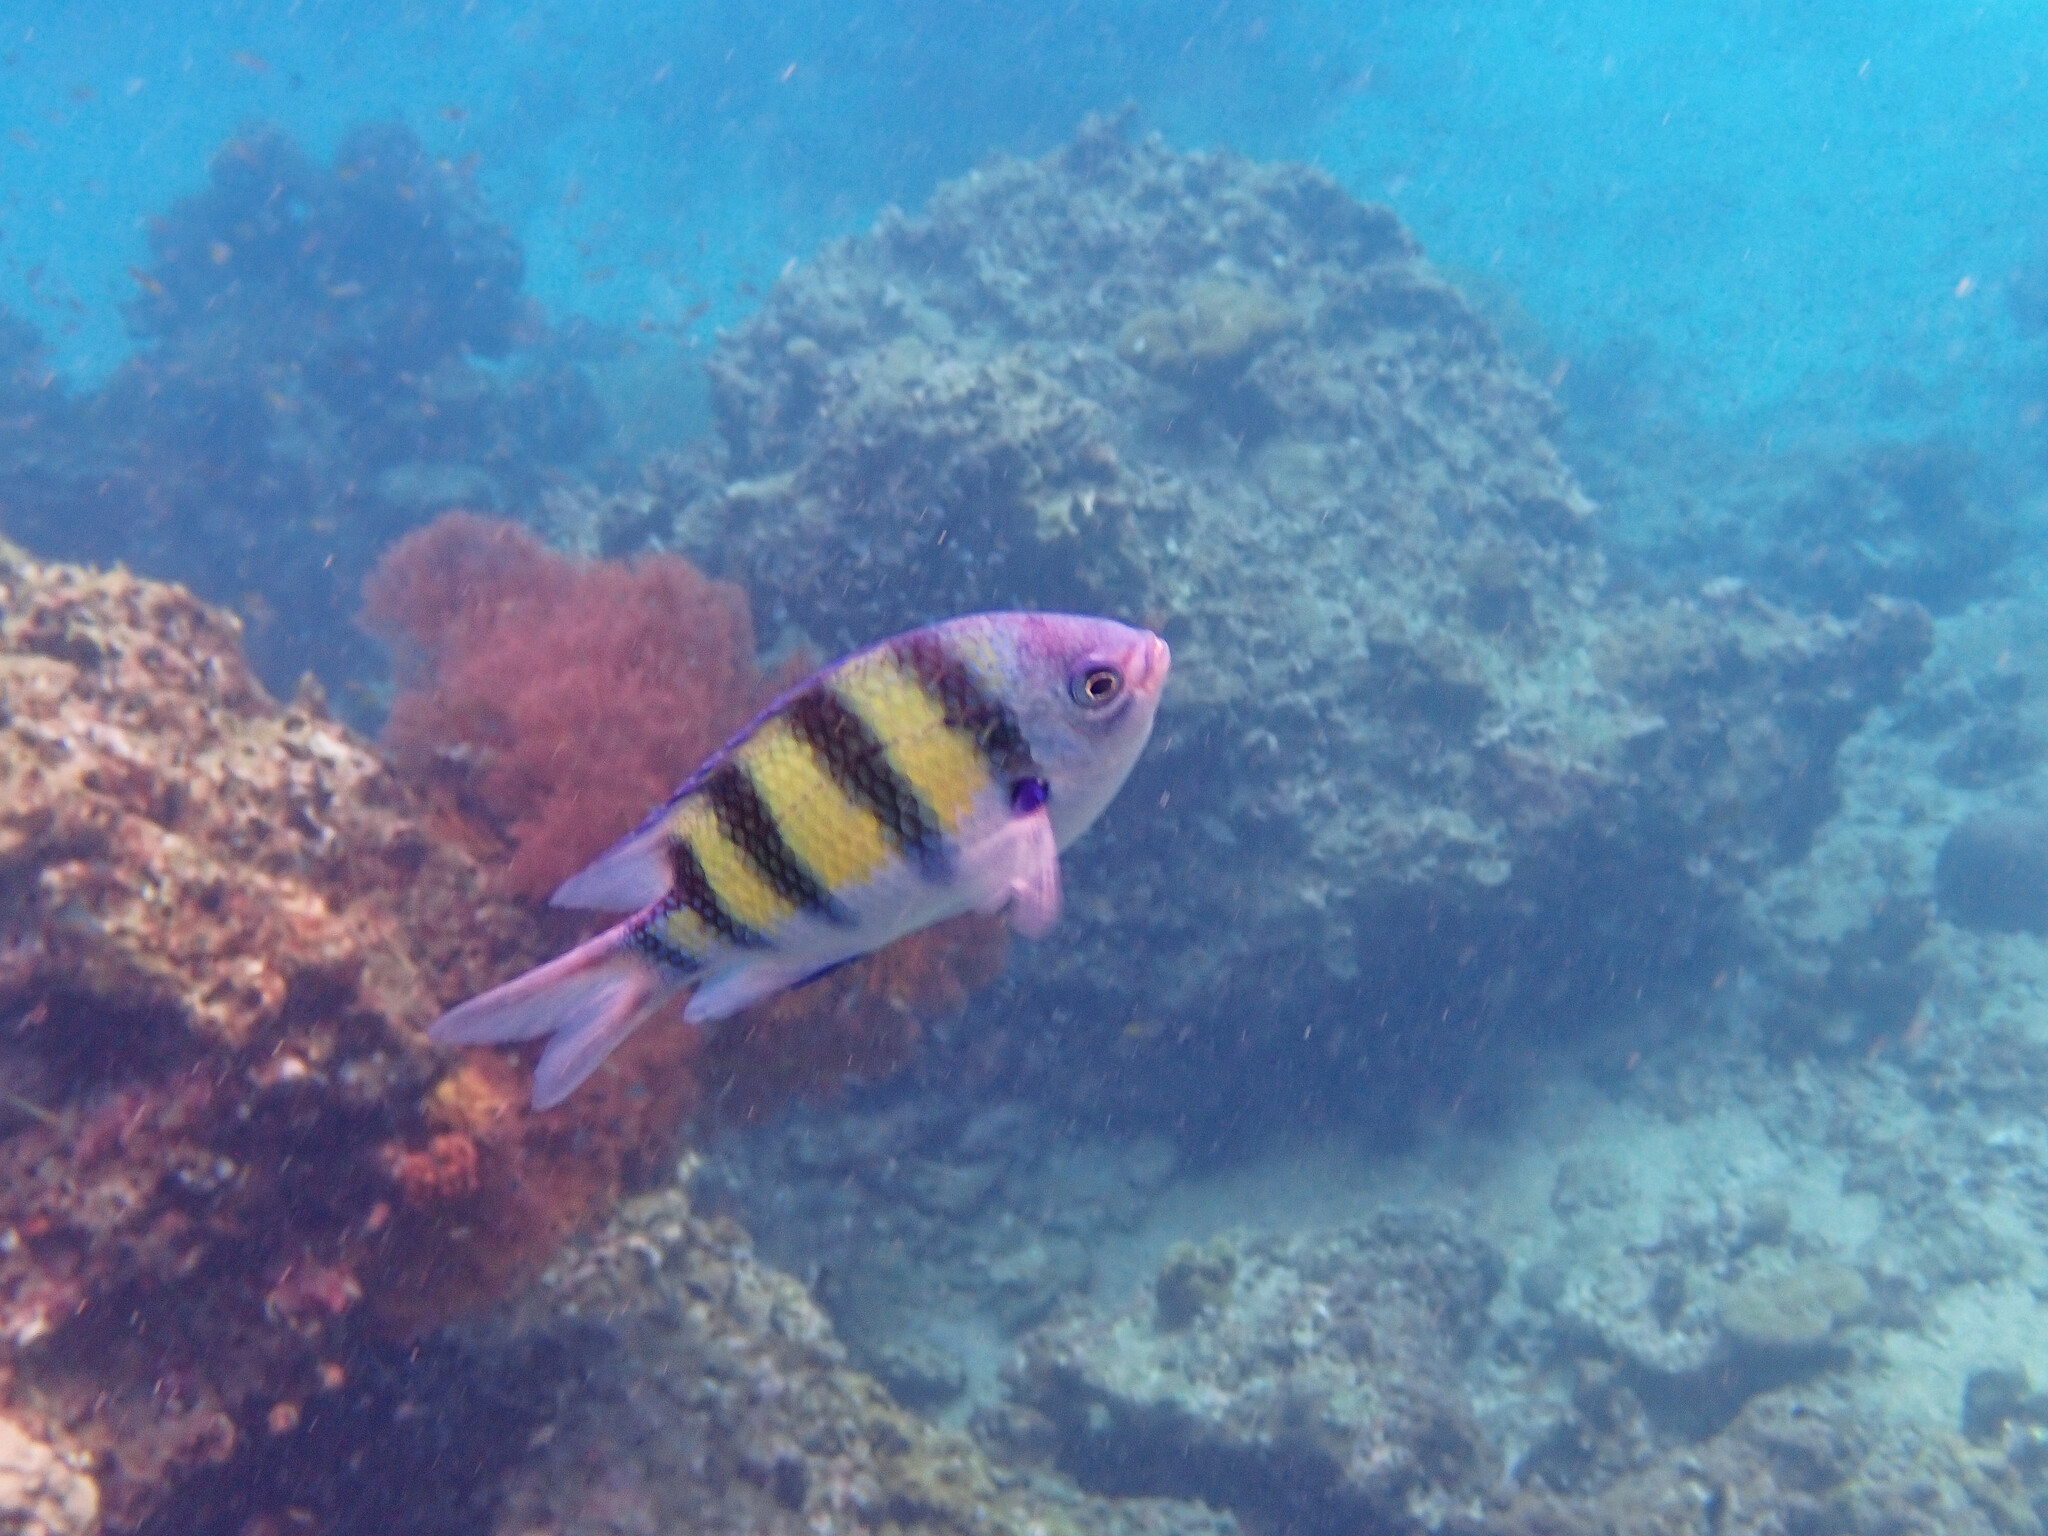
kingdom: Animalia
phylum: Chordata
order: Perciformes
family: Pomacentridae
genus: Abudefduf
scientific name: Abudefduf vaigiensis
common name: Indo-pacific sergeant
